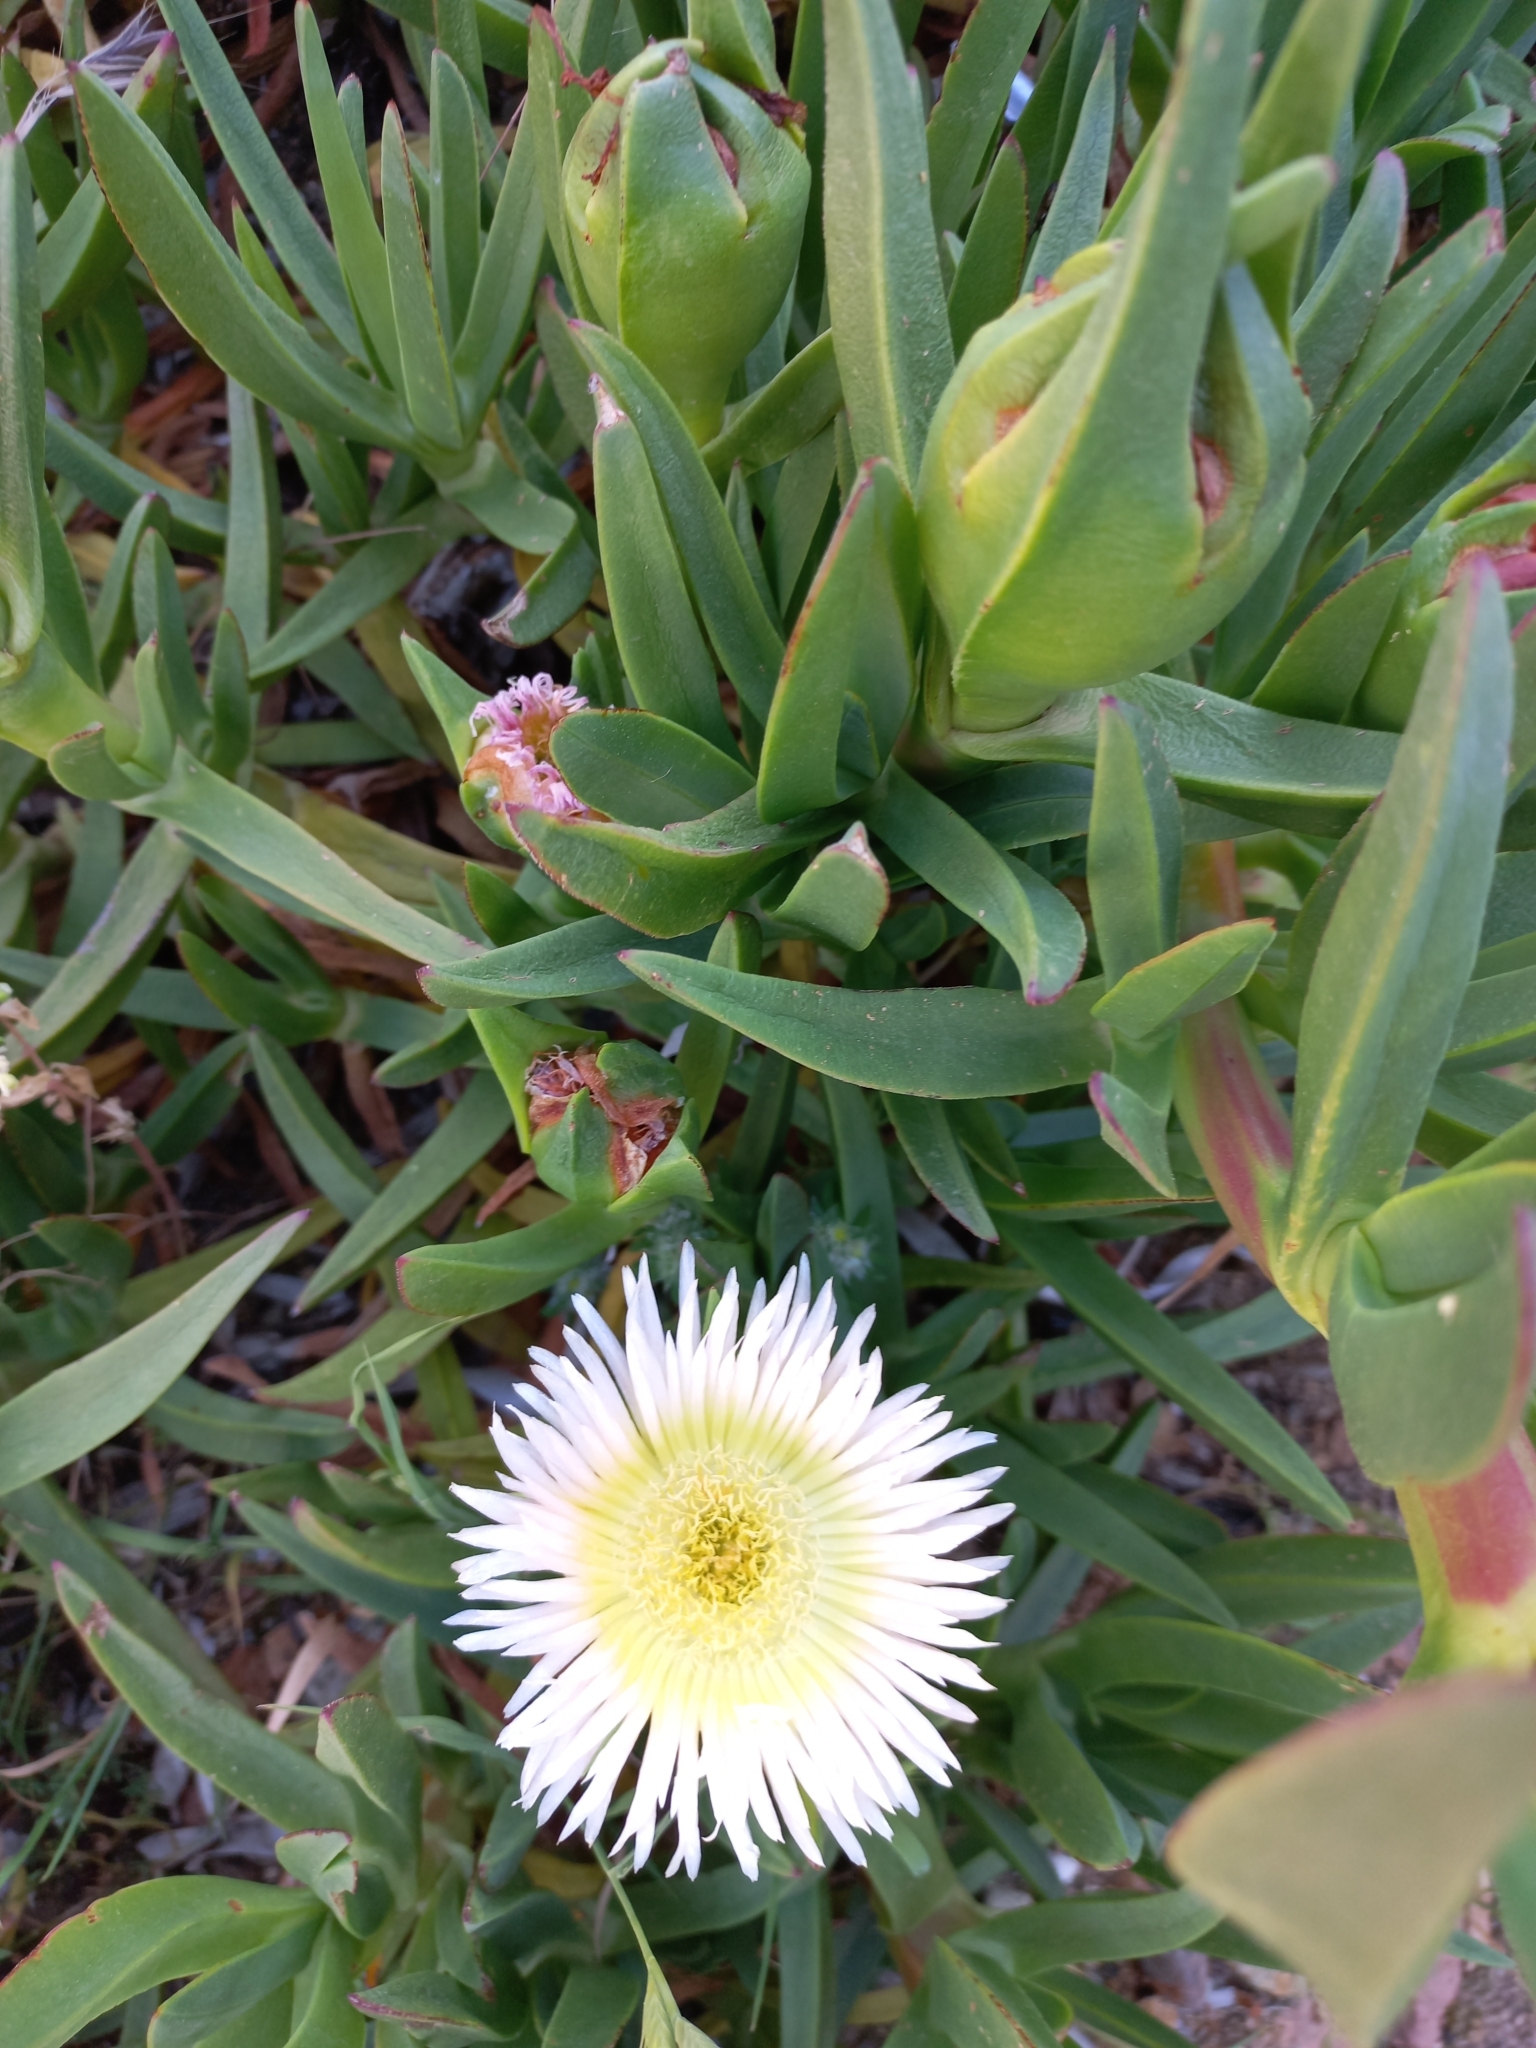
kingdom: Plantae
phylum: Tracheophyta
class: Magnoliopsida
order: Caryophyllales
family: Aizoaceae
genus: Carpobrotus
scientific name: Carpobrotus edulis
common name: Hottentot-fig
